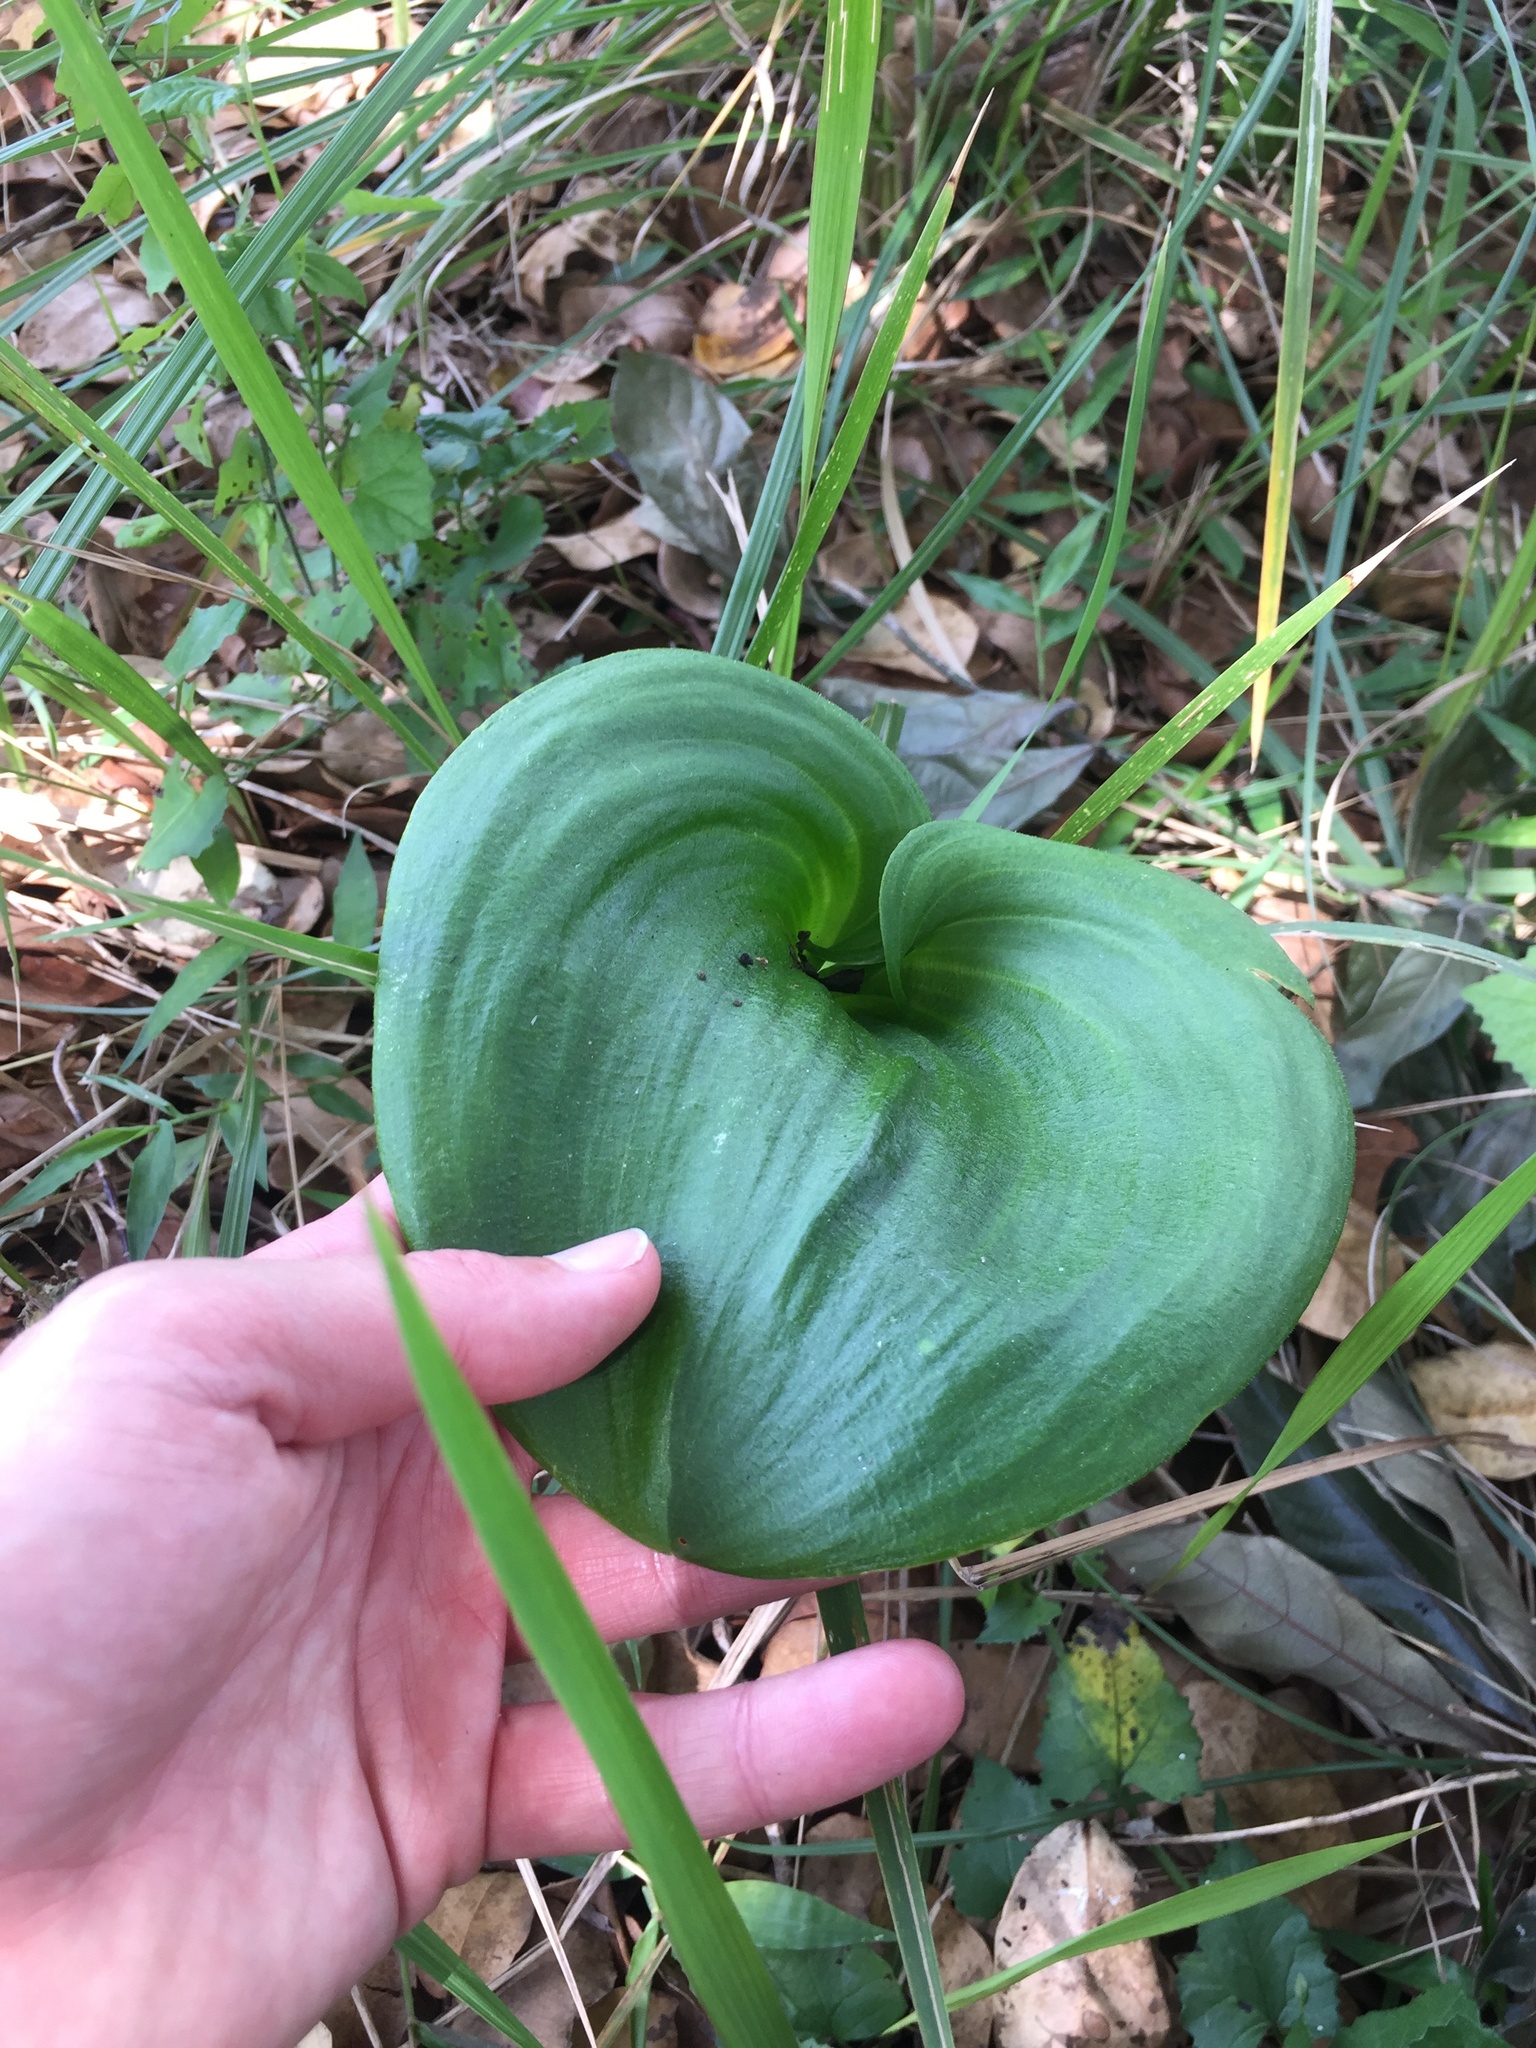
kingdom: Plantae
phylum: Tracheophyta
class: Liliopsida
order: Asparagales
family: Asparagaceae
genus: Eriospermum
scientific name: Eriospermum ornithogaloides
